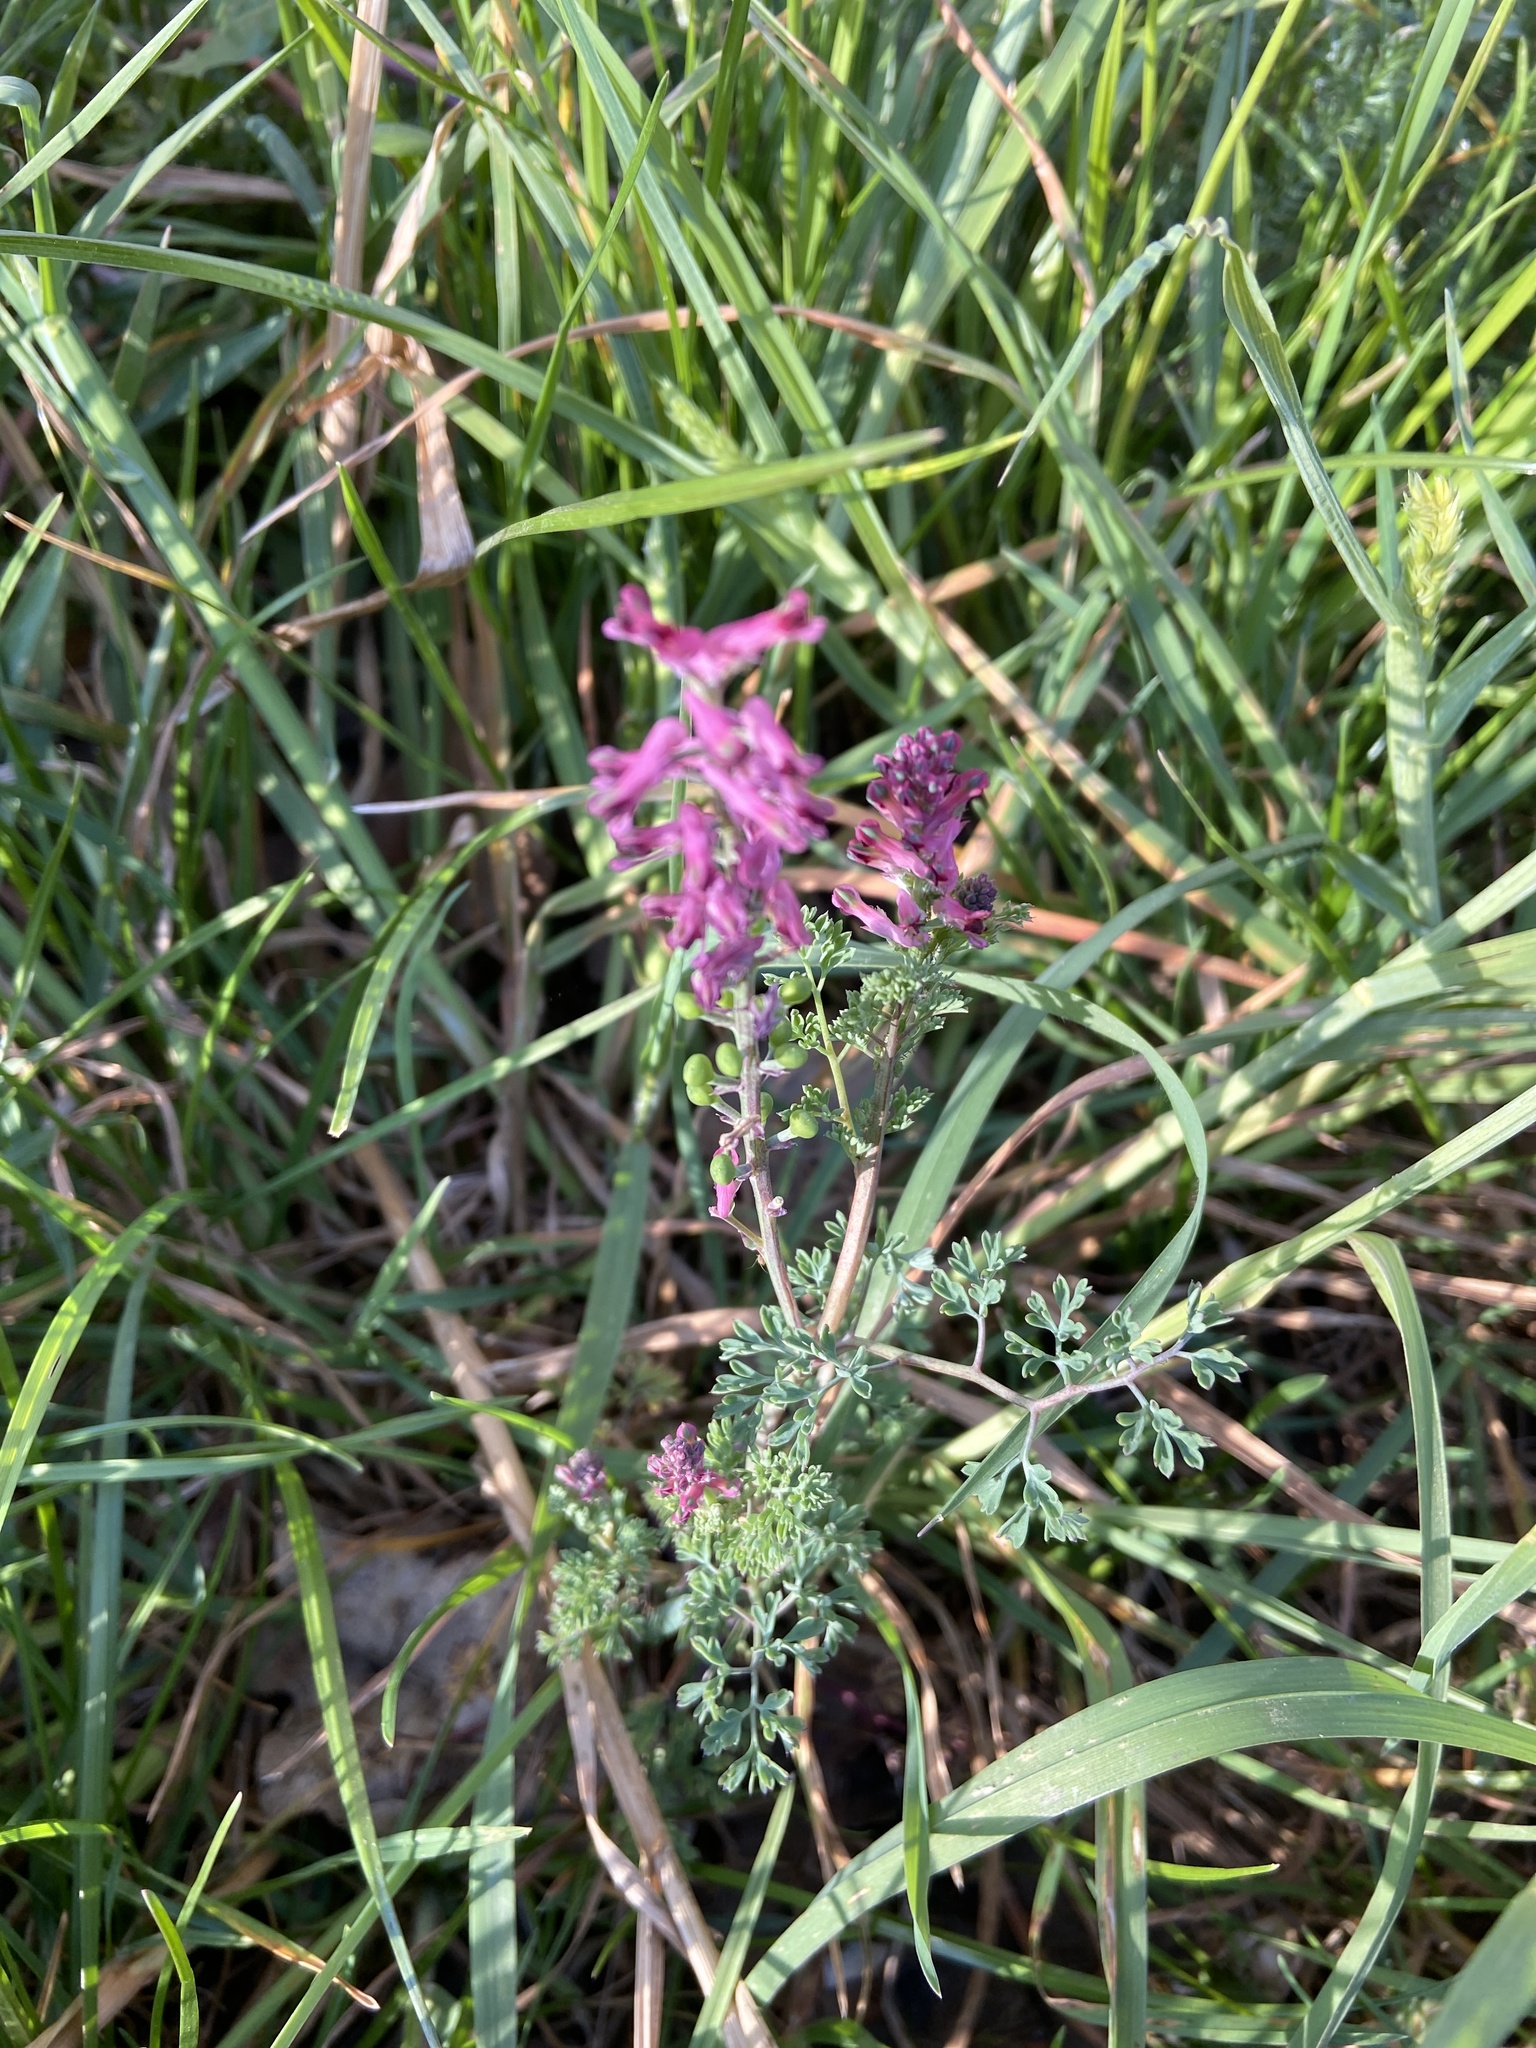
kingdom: Plantae
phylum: Tracheophyta
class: Magnoliopsida
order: Ranunculales
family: Papaveraceae
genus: Fumaria
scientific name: Fumaria officinalis
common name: Common fumitory
